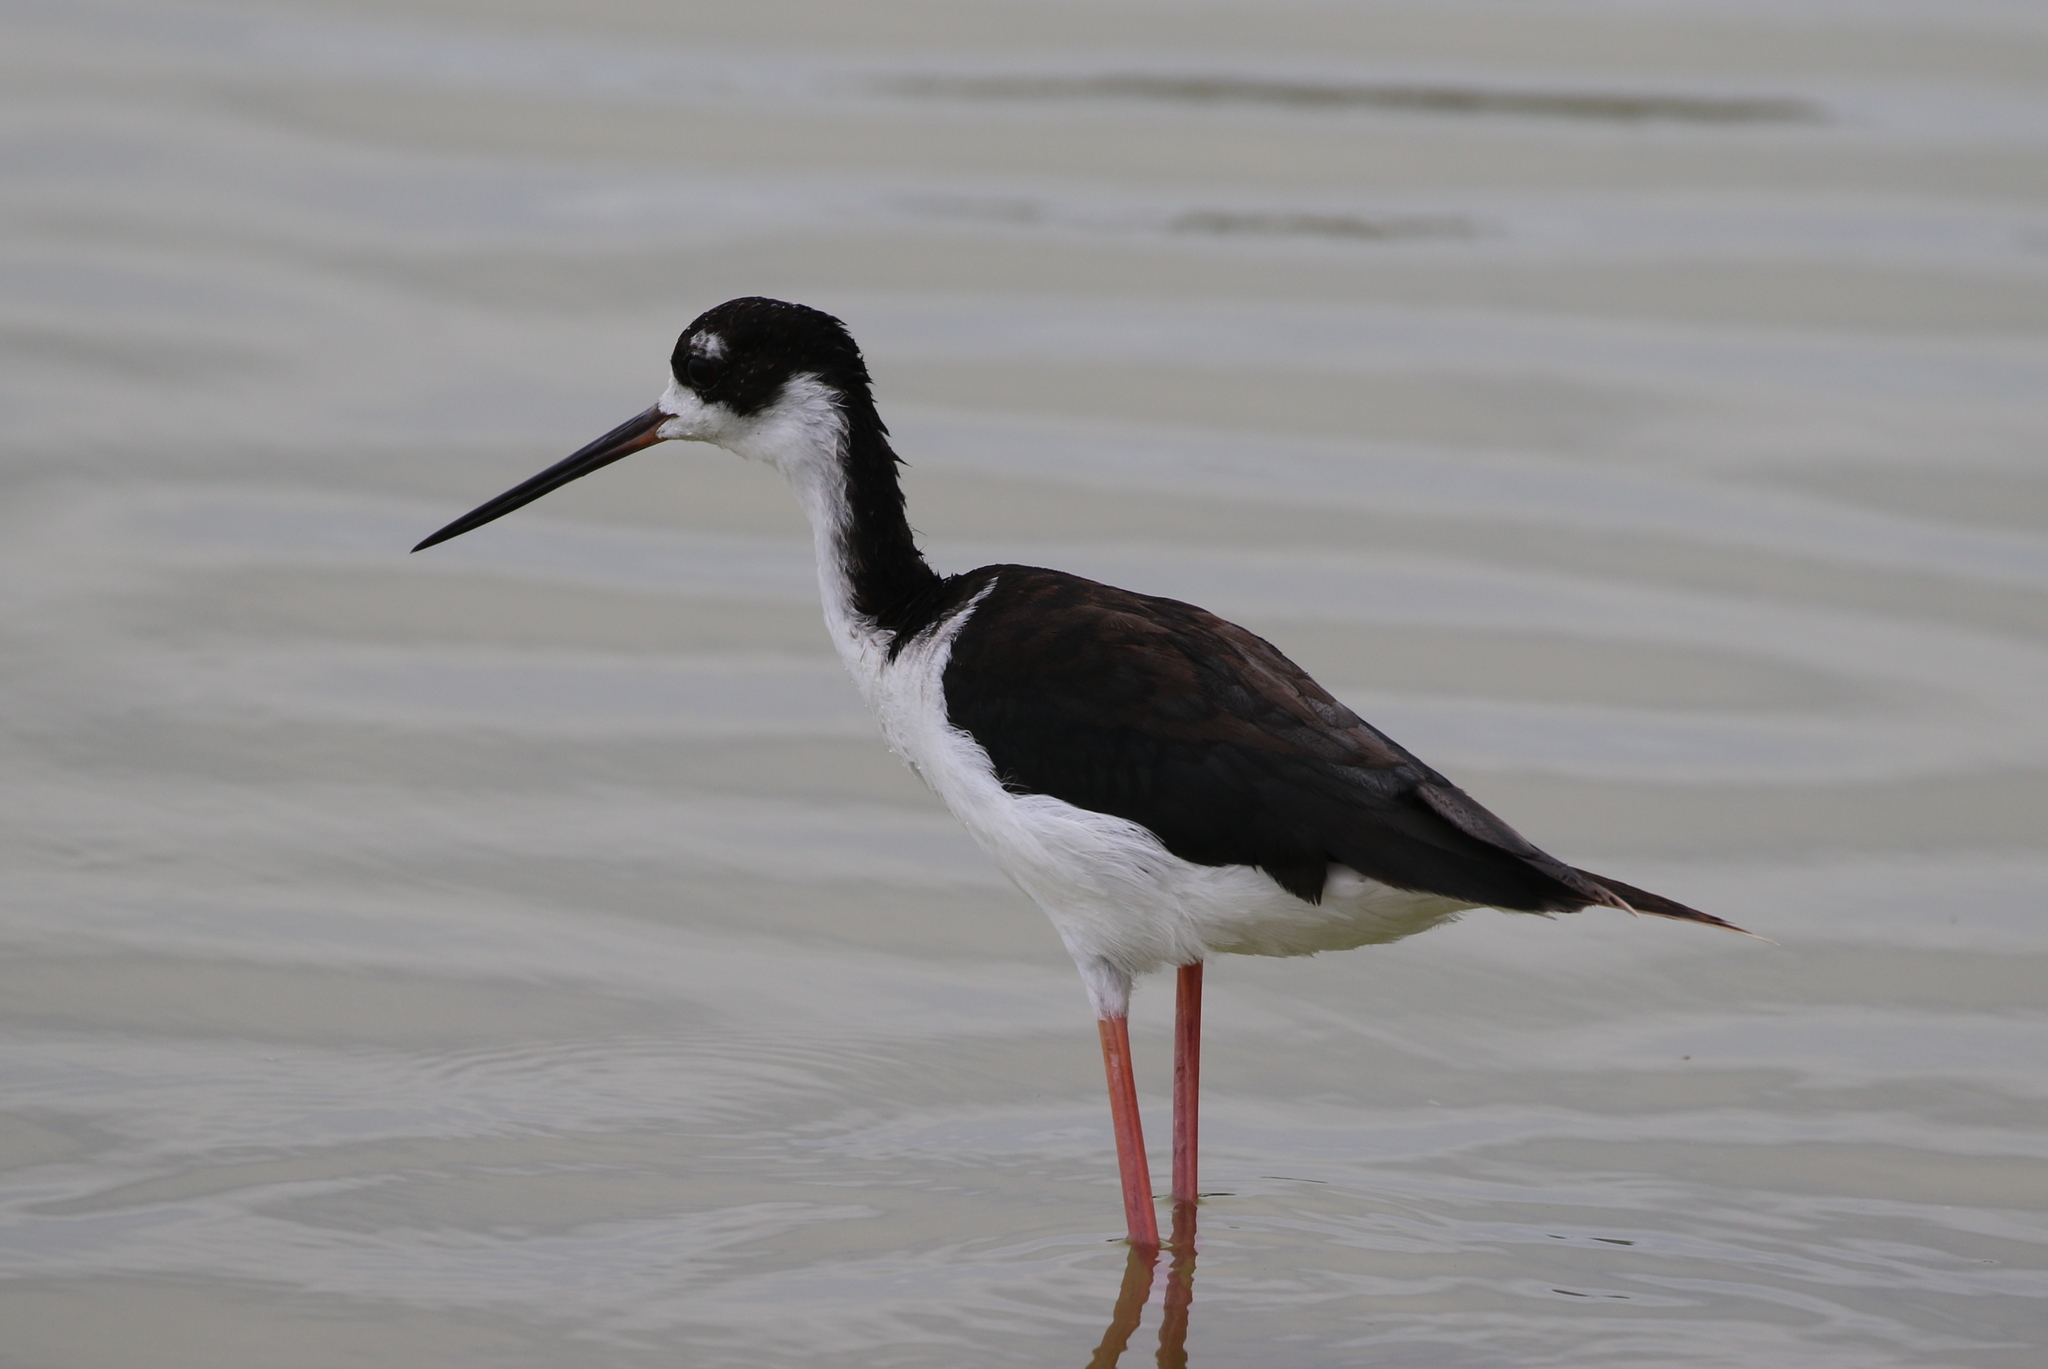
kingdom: Animalia
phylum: Chordata
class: Aves
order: Charadriiformes
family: Recurvirostridae
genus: Himantopus
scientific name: Himantopus mexicanus
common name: Black-necked stilt
